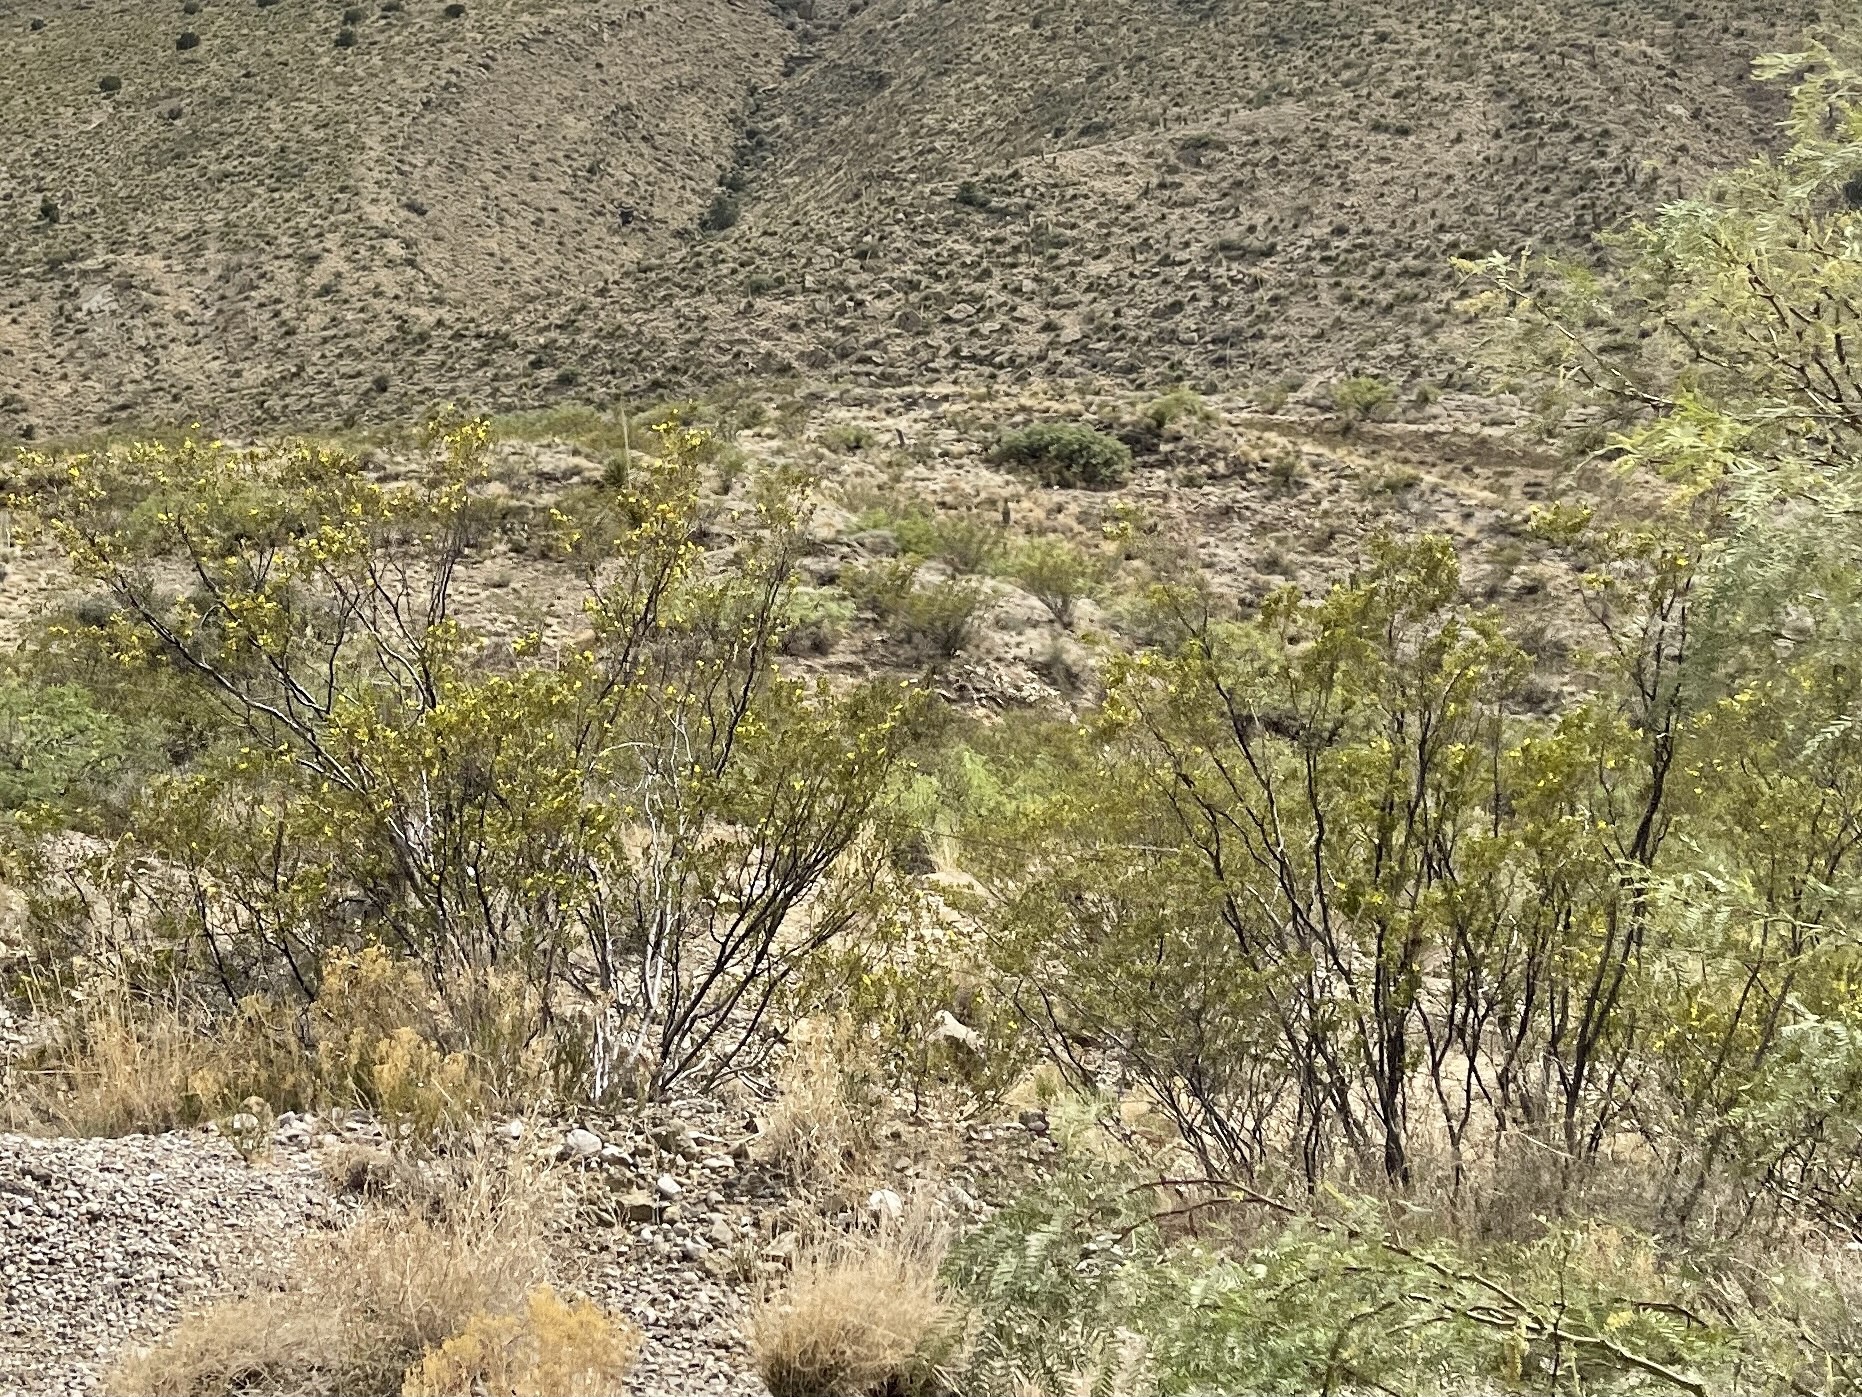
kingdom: Plantae
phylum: Tracheophyta
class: Magnoliopsida
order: Zygophyllales
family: Zygophyllaceae
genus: Larrea
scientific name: Larrea tridentata
